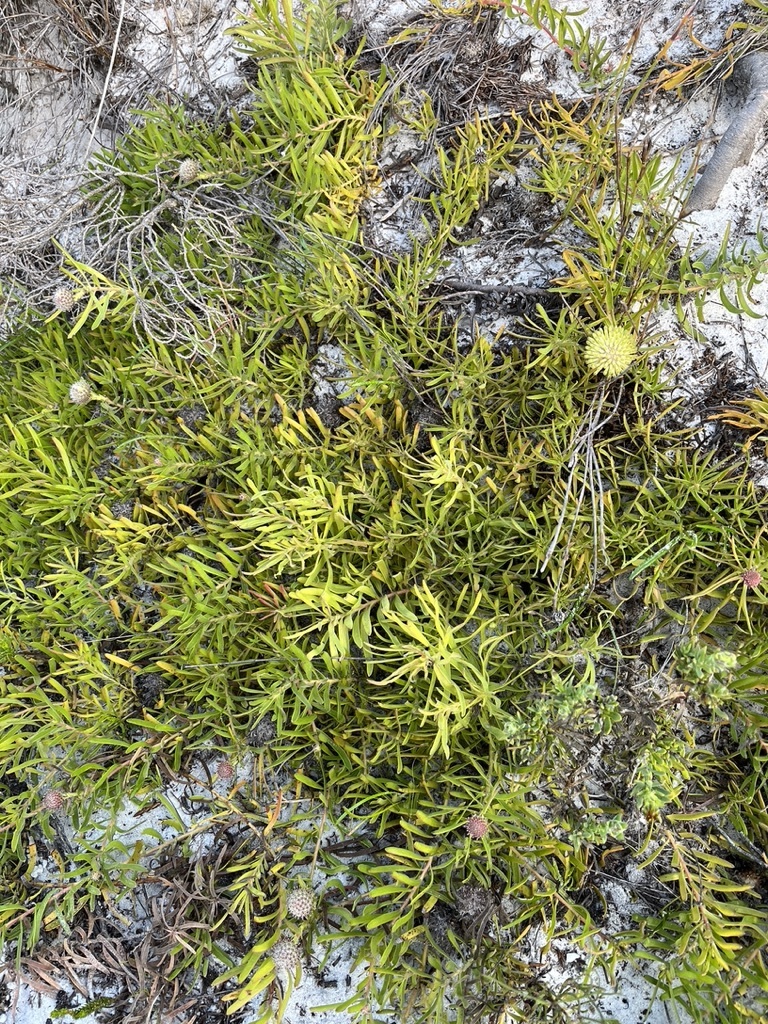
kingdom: Plantae
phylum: Tracheophyta
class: Magnoliopsida
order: Proteales
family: Proteaceae
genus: Leucospermum
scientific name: Leucospermum pedunculatum
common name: White-trailing pincushion
